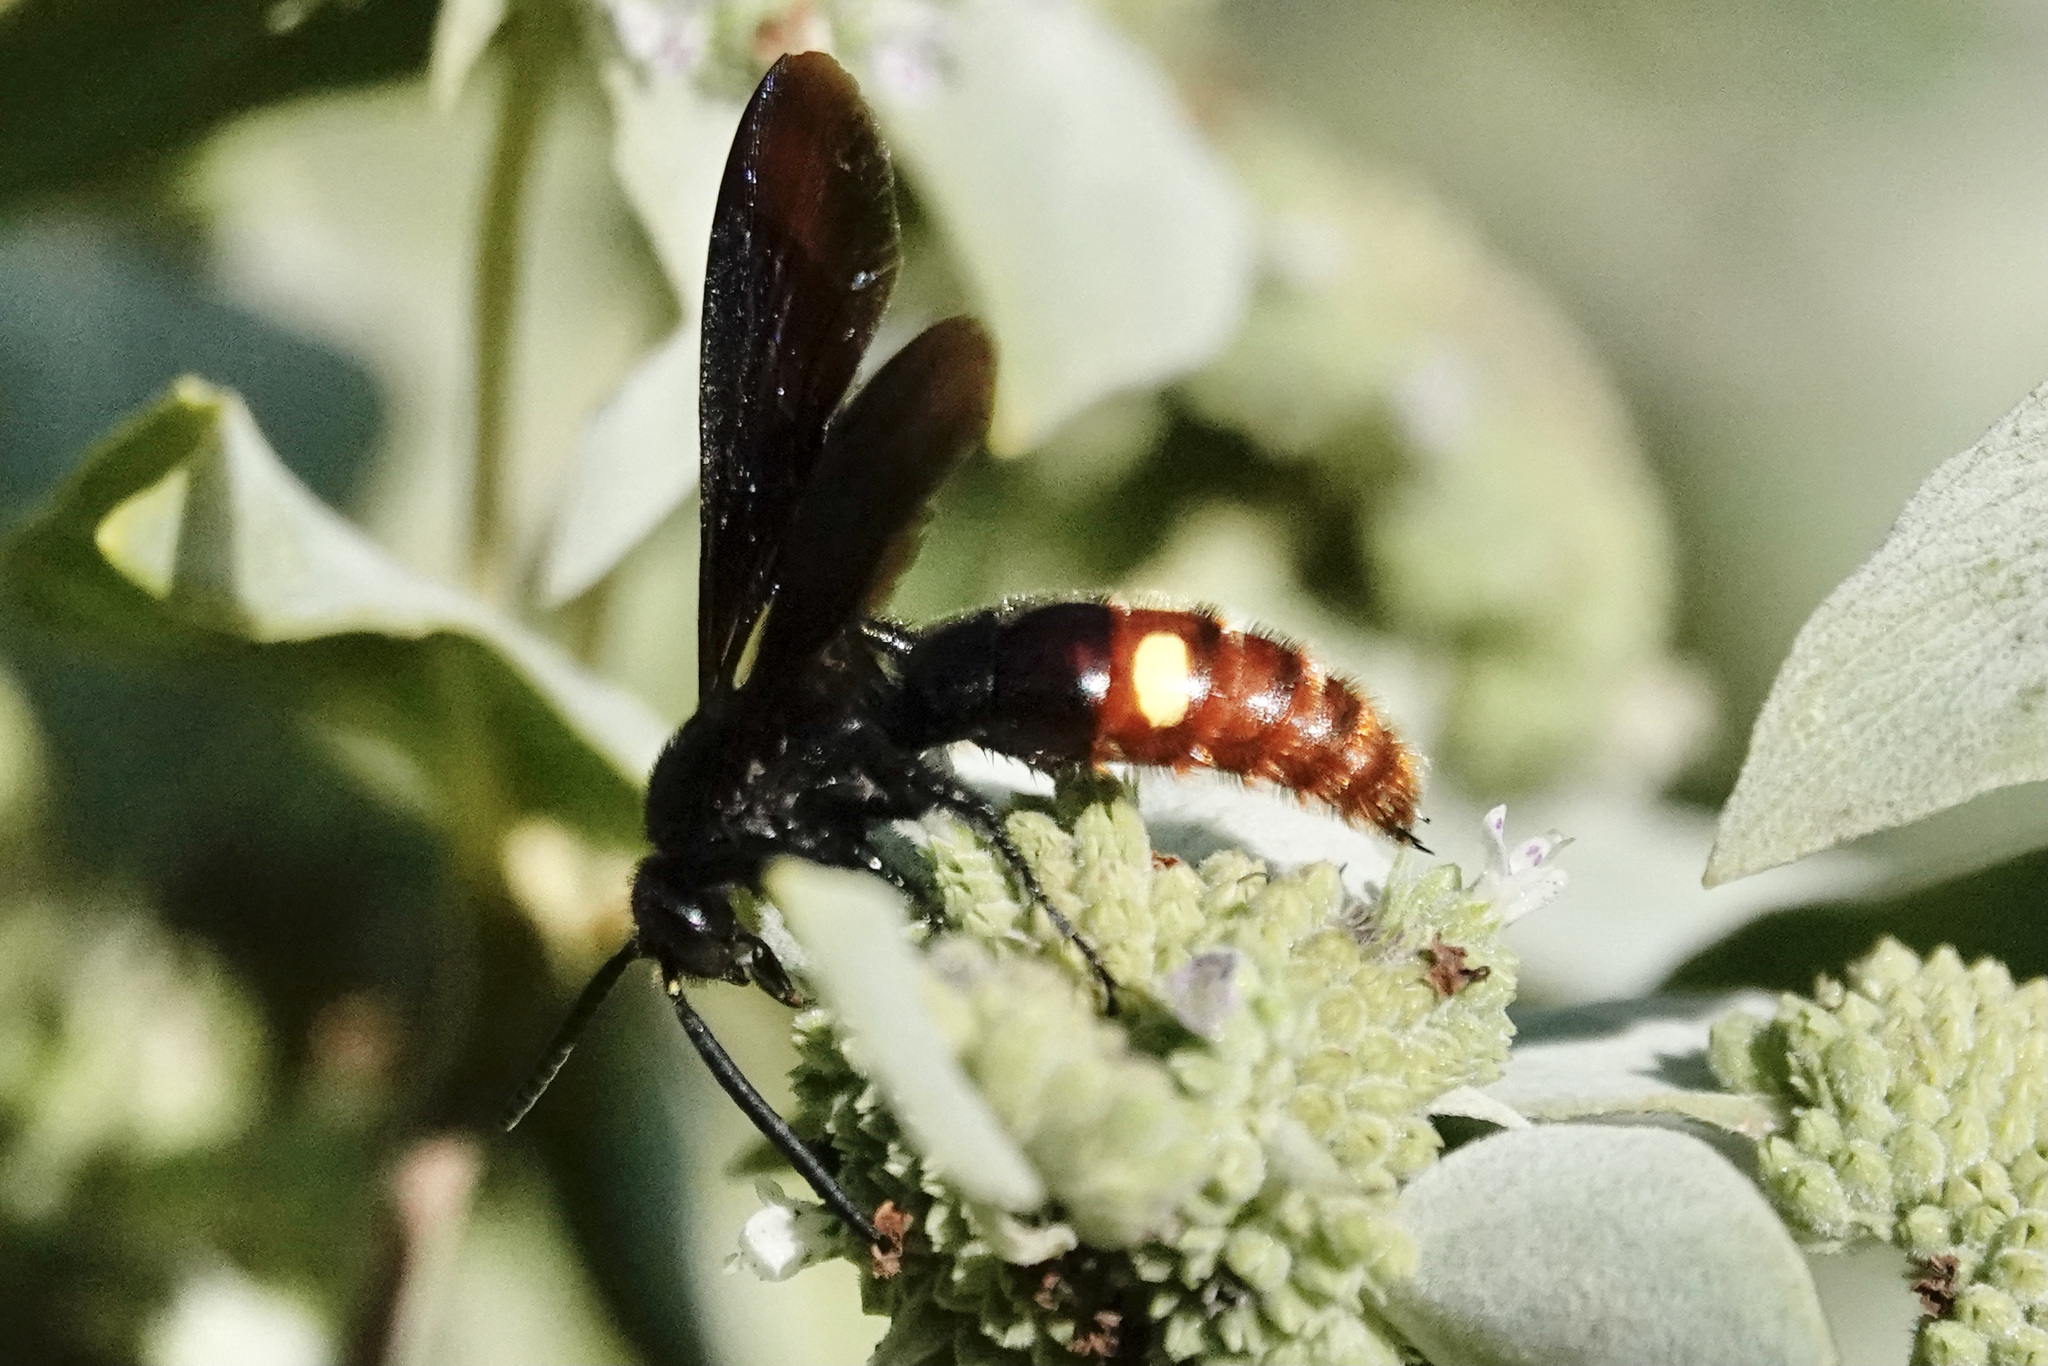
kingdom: Animalia
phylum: Arthropoda
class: Insecta
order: Hymenoptera
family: Scoliidae
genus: Scolia
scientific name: Scolia dubia
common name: Blue-winged scoliid wasp
